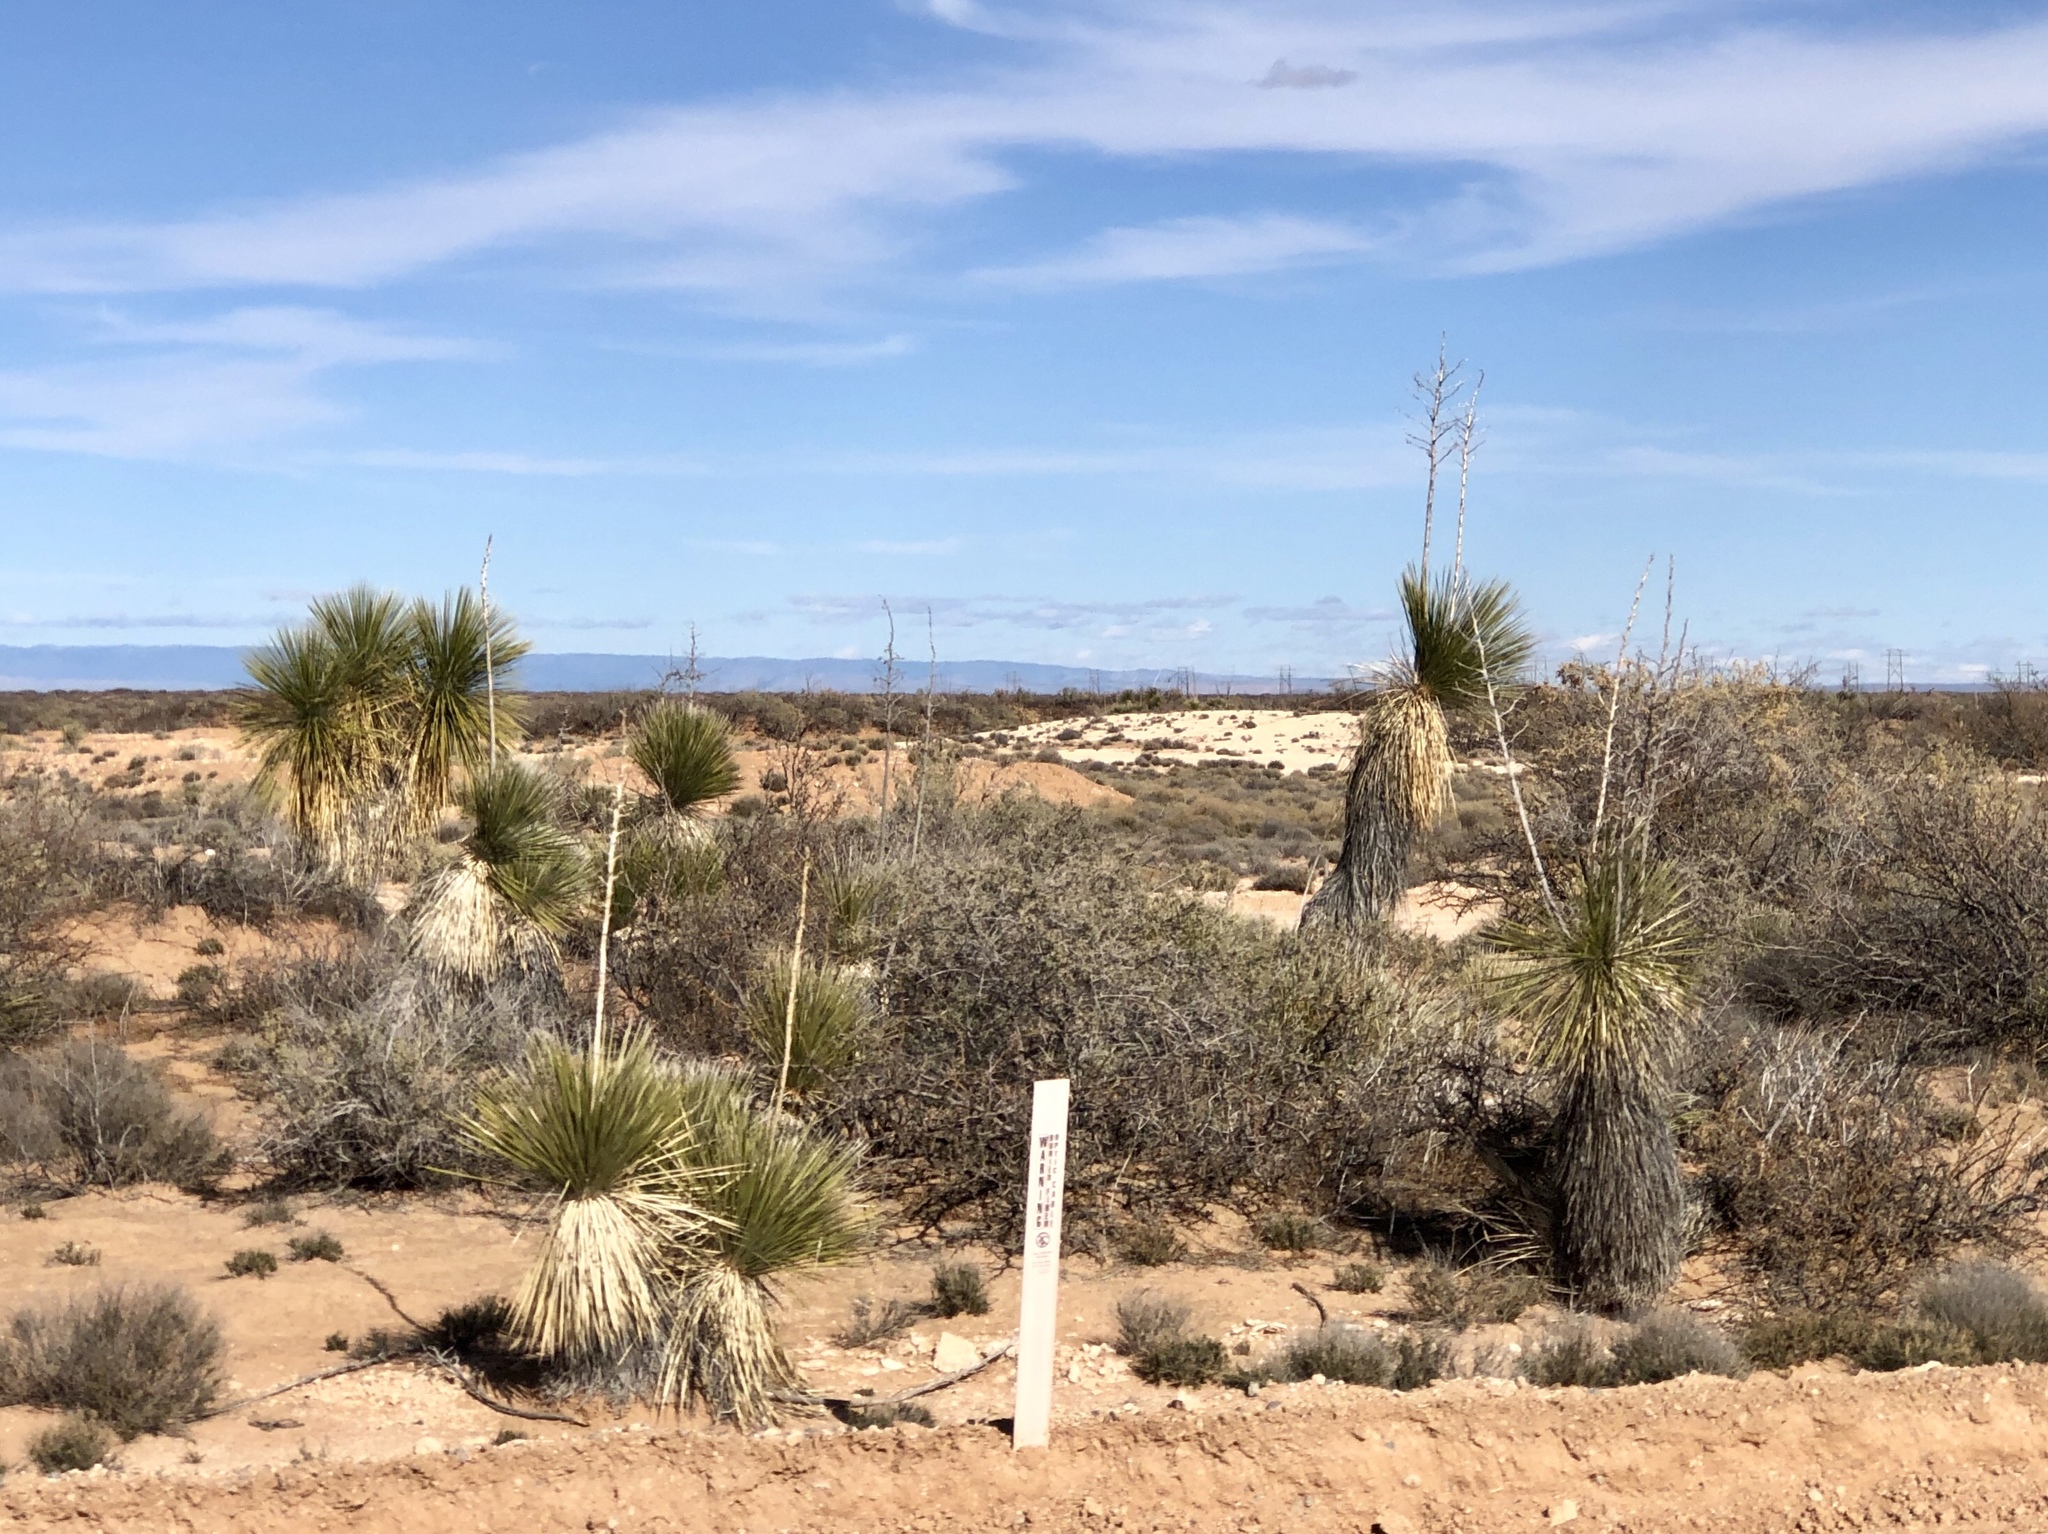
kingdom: Plantae
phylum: Tracheophyta
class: Liliopsida
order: Asparagales
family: Asparagaceae
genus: Yucca
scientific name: Yucca elata
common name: Palmella
